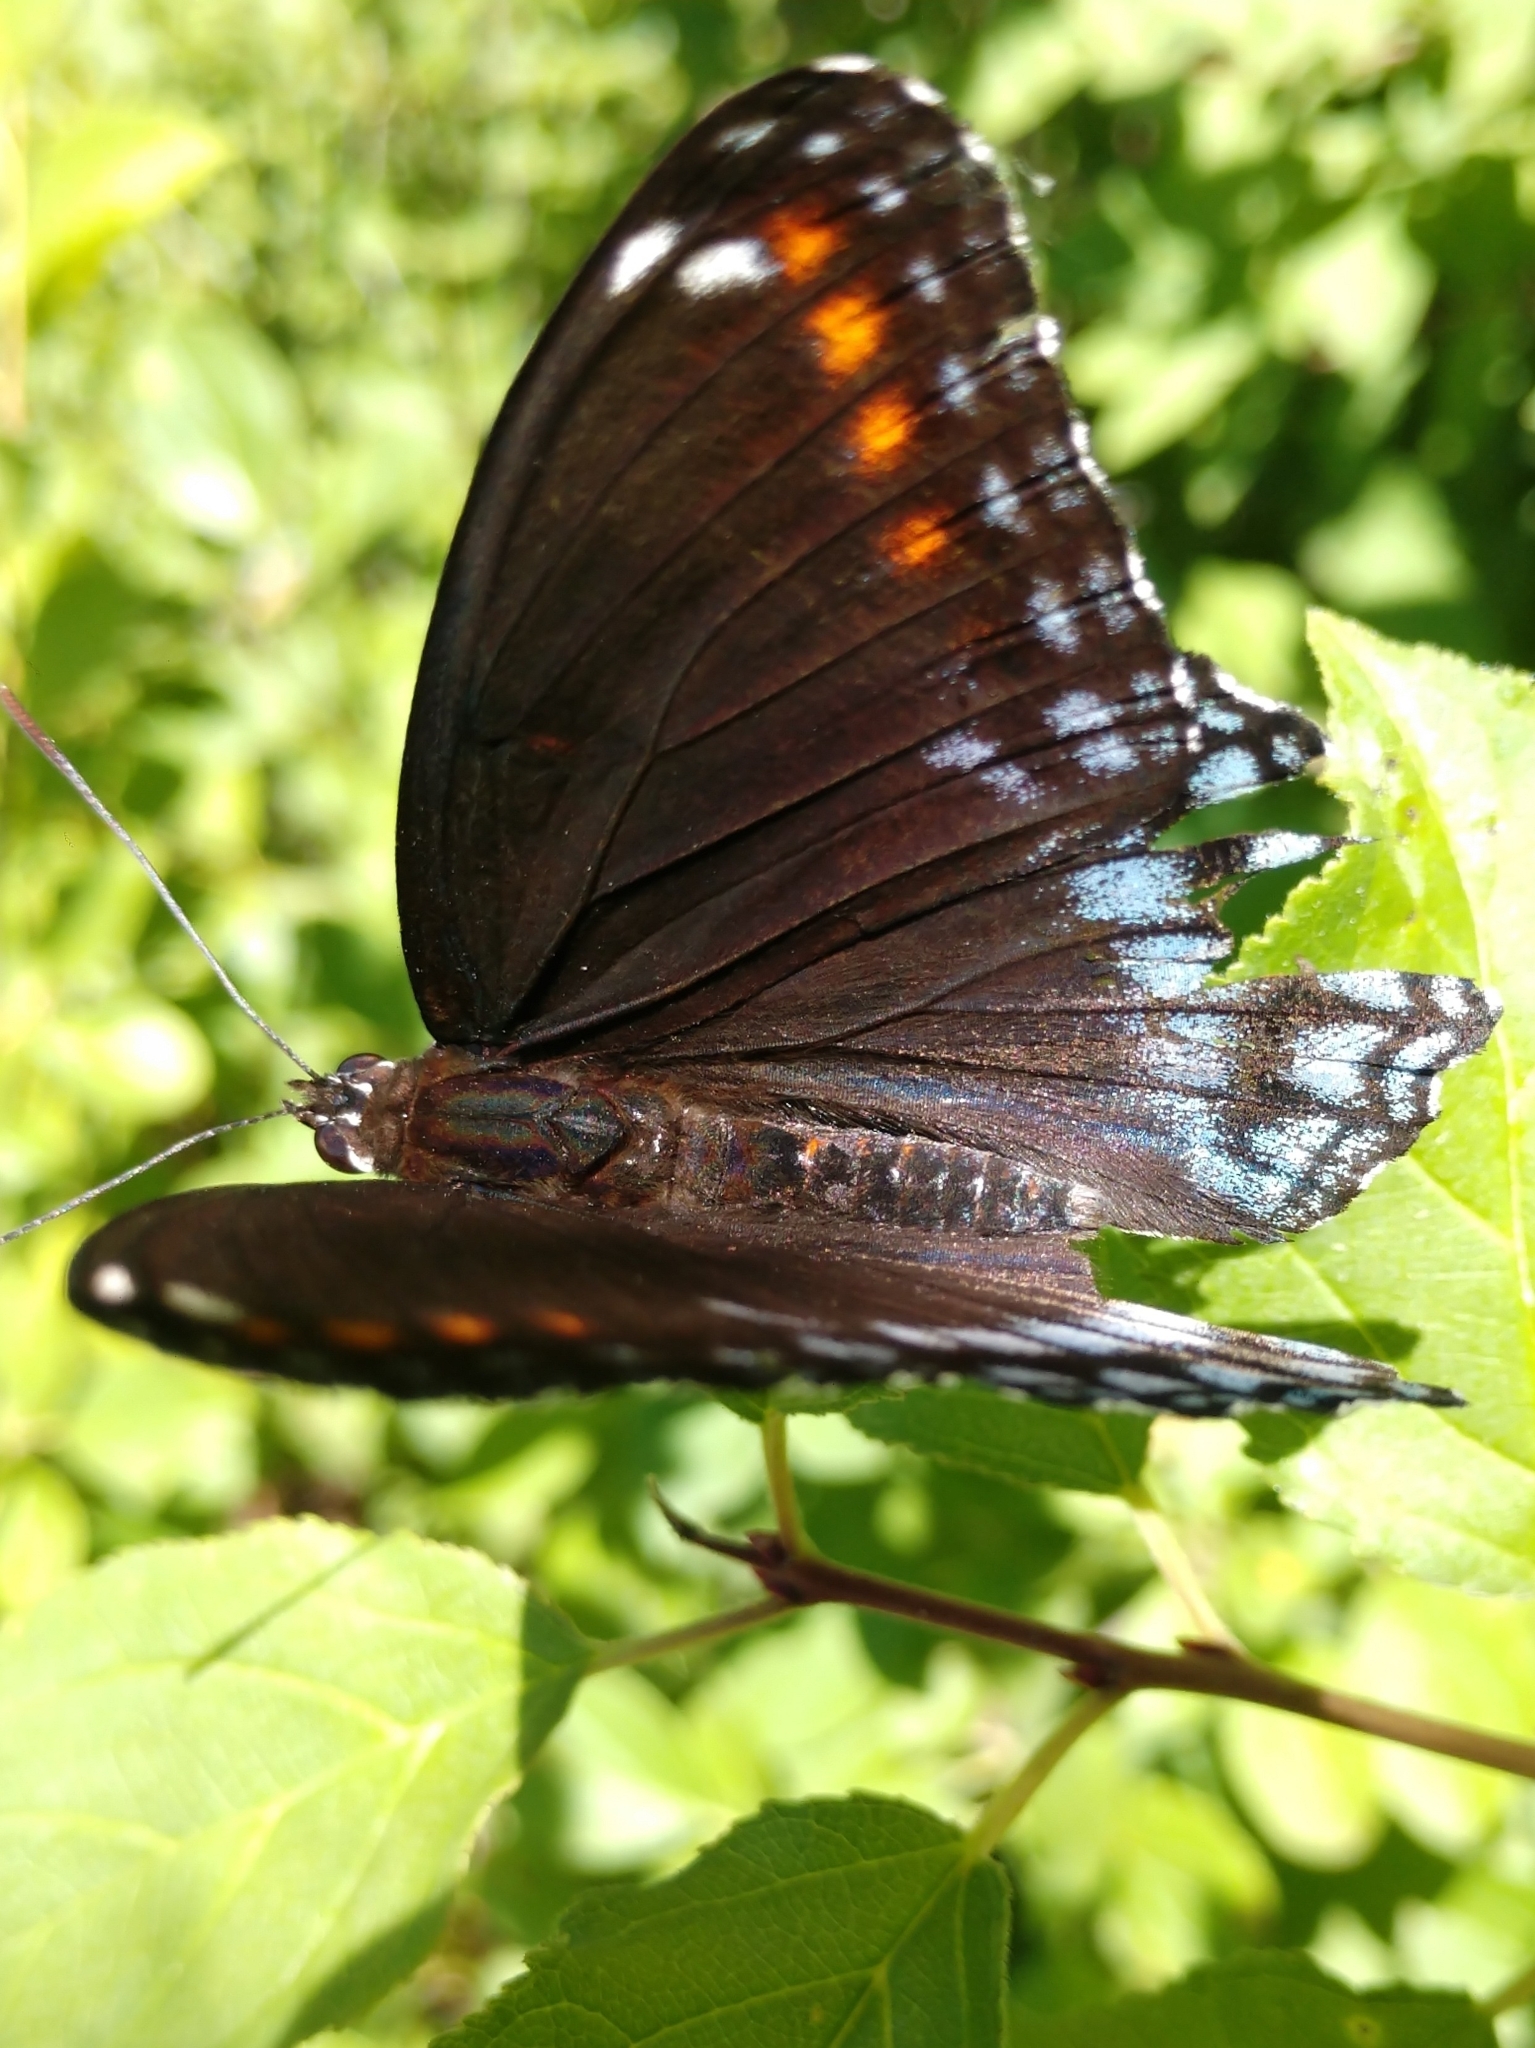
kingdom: Animalia
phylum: Arthropoda
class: Insecta
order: Lepidoptera
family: Nymphalidae
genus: Limenitis
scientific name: Limenitis arthemis
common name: Red-spotted admiral
